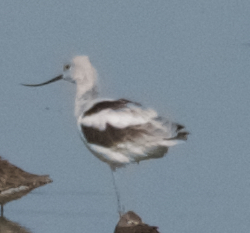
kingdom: Animalia
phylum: Chordata
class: Aves
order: Charadriiformes
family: Recurvirostridae
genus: Recurvirostra
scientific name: Recurvirostra americana
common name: American avocet
